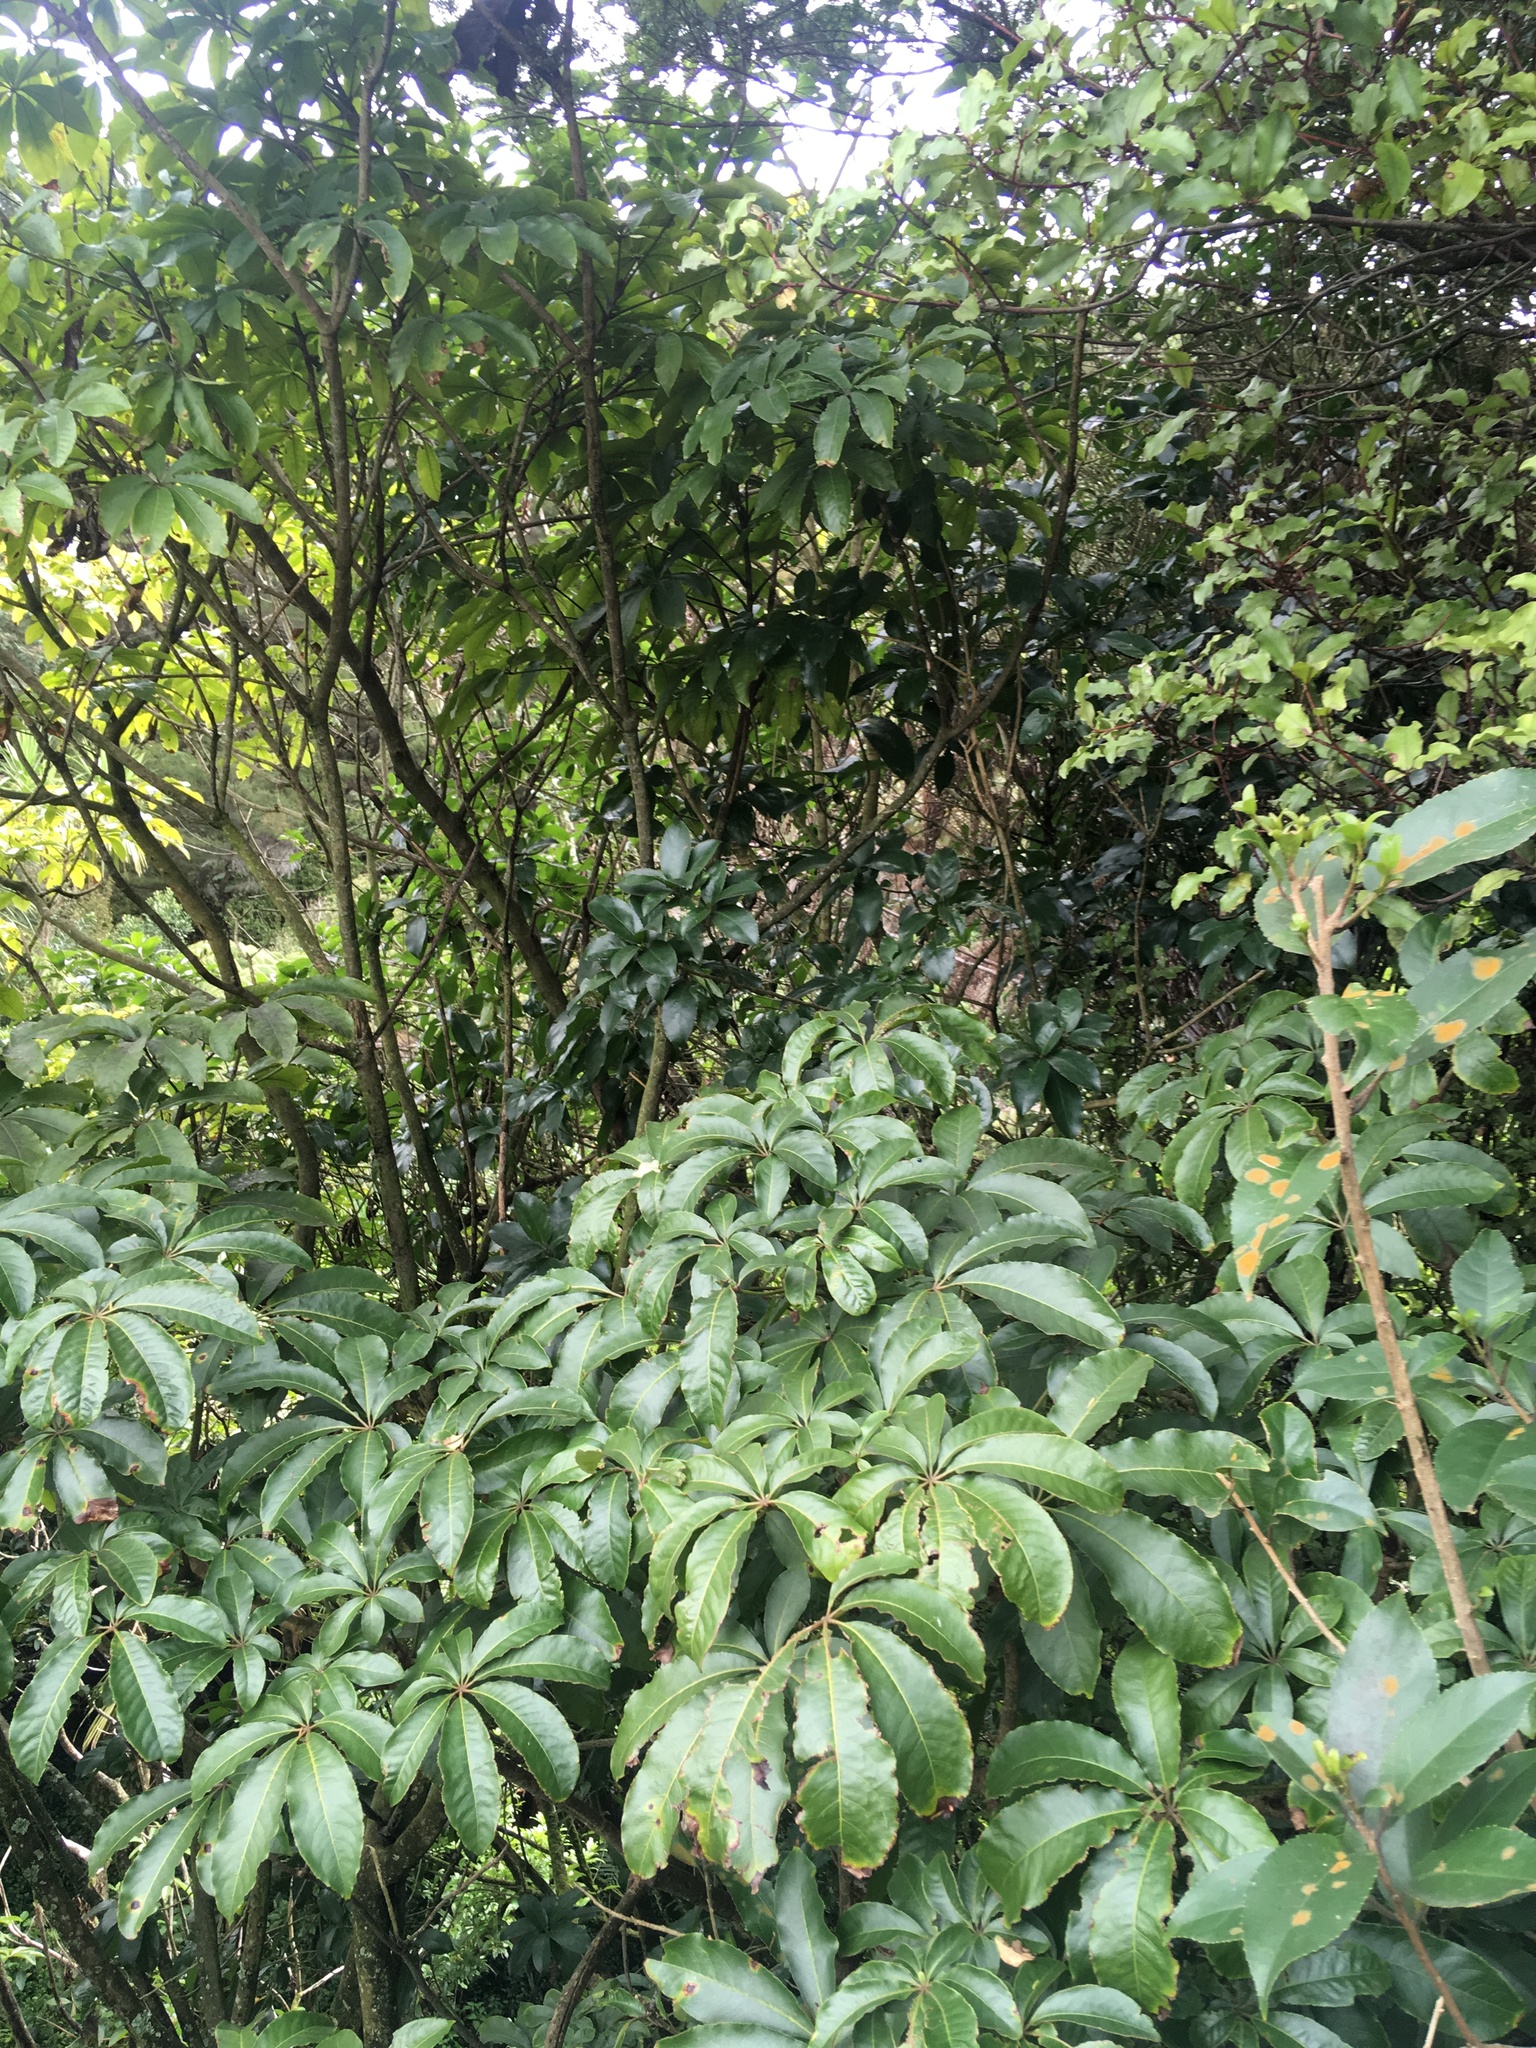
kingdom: Plantae
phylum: Tracheophyta
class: Magnoliopsida
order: Apiales
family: Araliaceae
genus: Schefflera
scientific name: Schefflera digitata
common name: Pate
